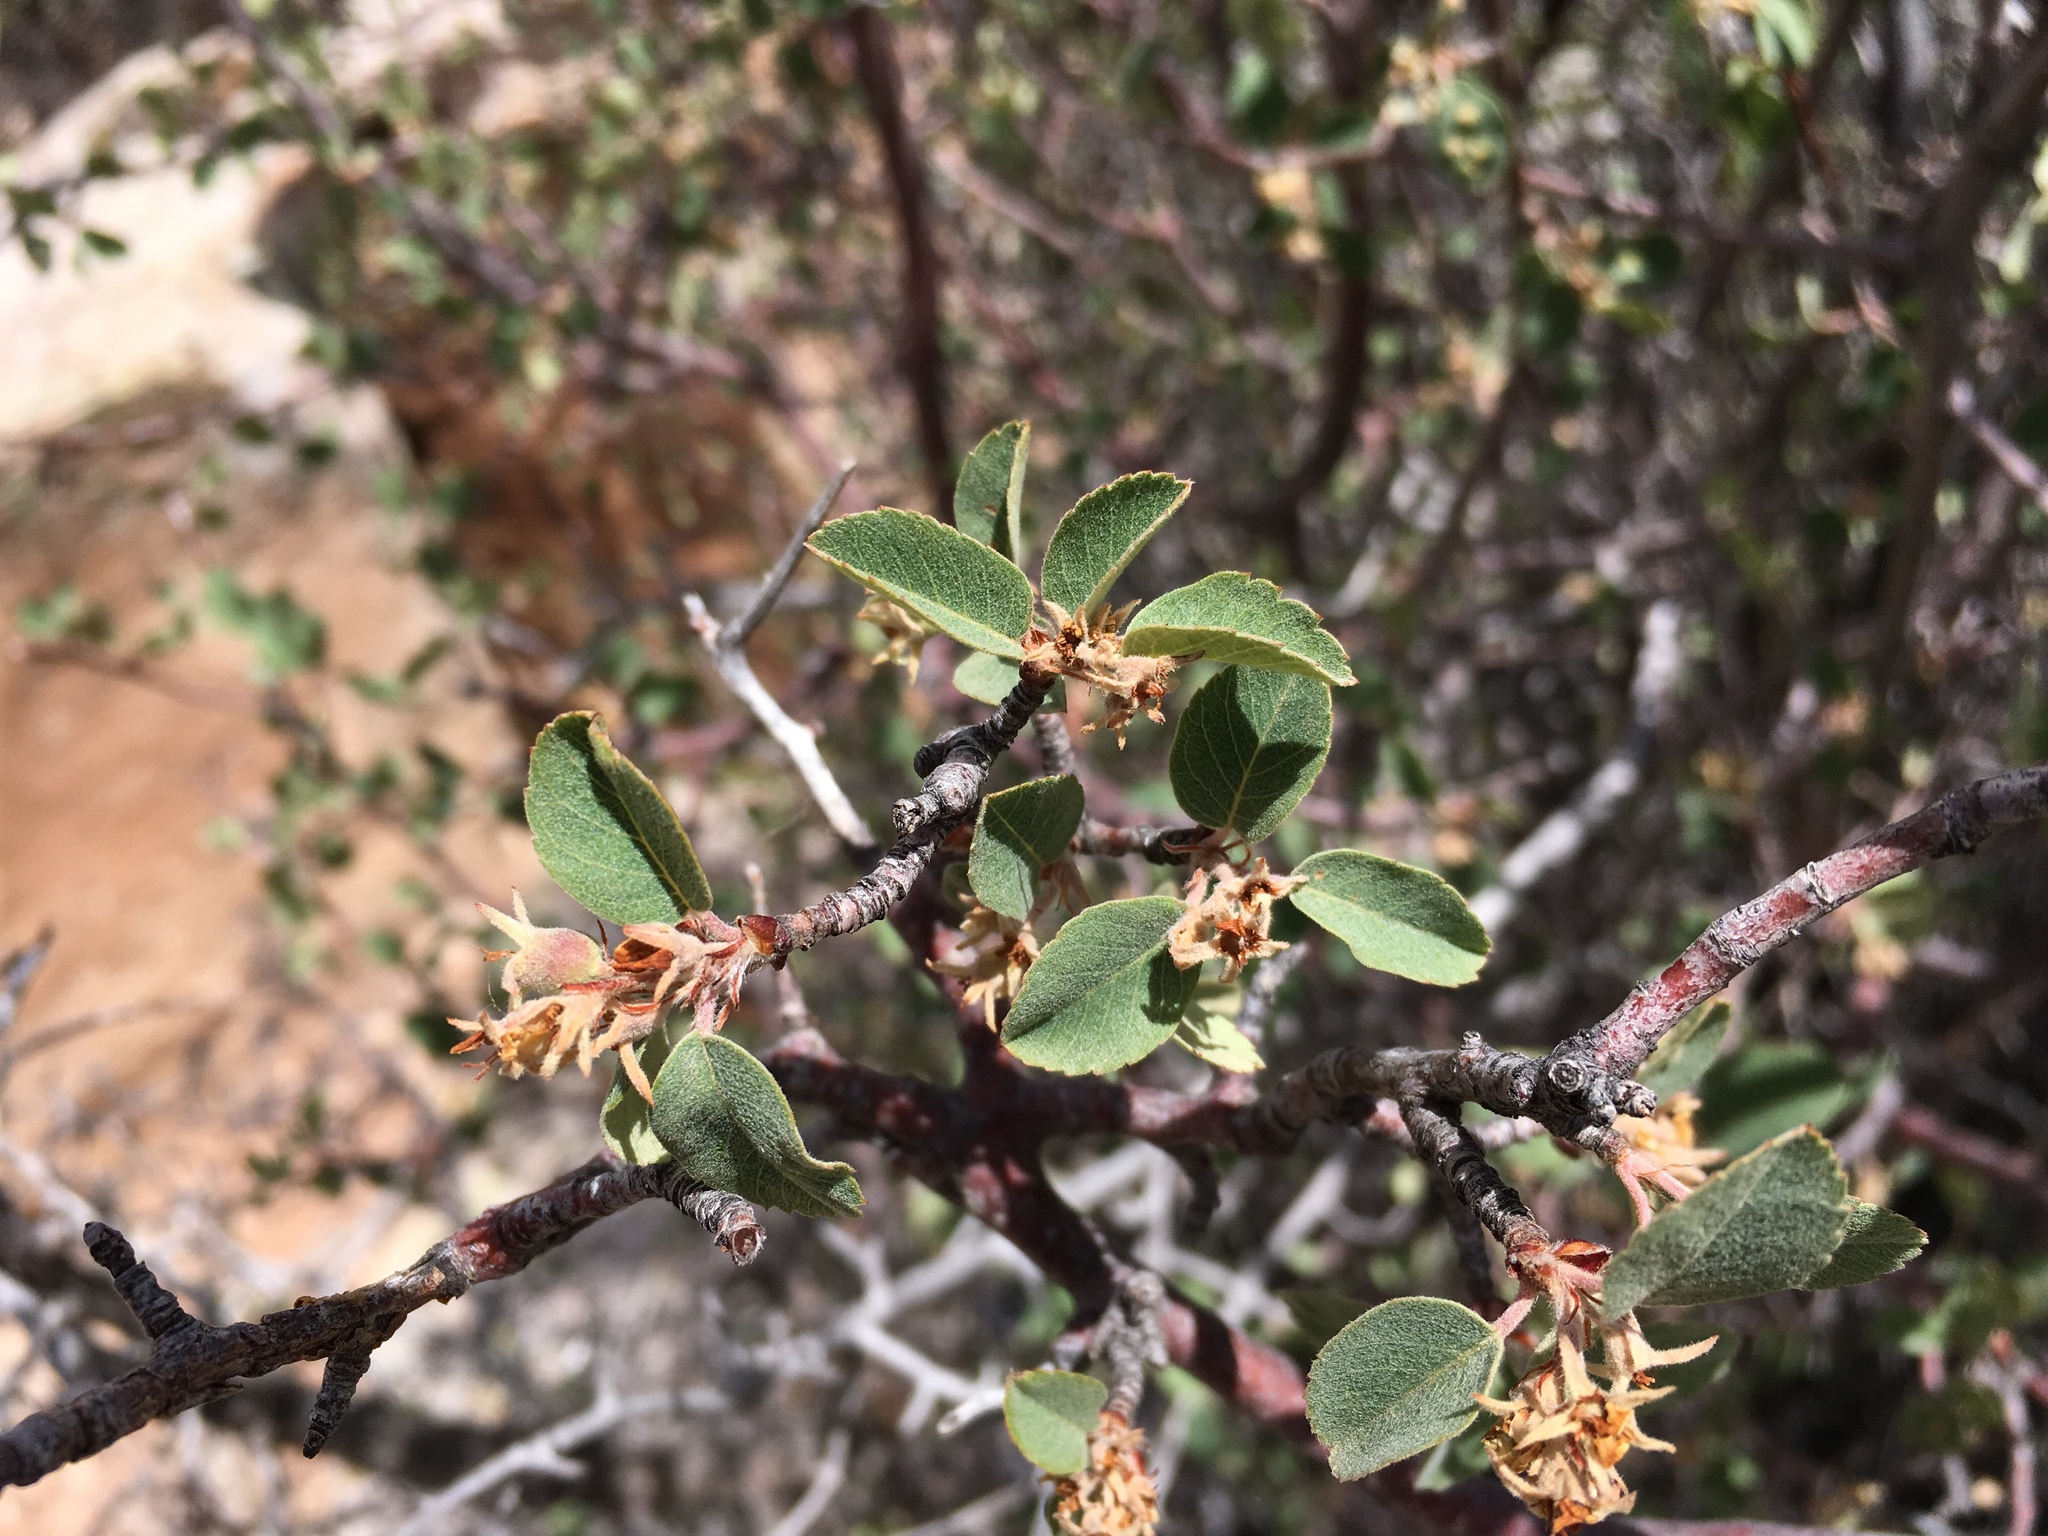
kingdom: Plantae
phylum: Tracheophyta
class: Magnoliopsida
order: Rosales
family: Rosaceae
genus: Amelanchier
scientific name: Amelanchier utahensis
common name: Utah serviceberry
